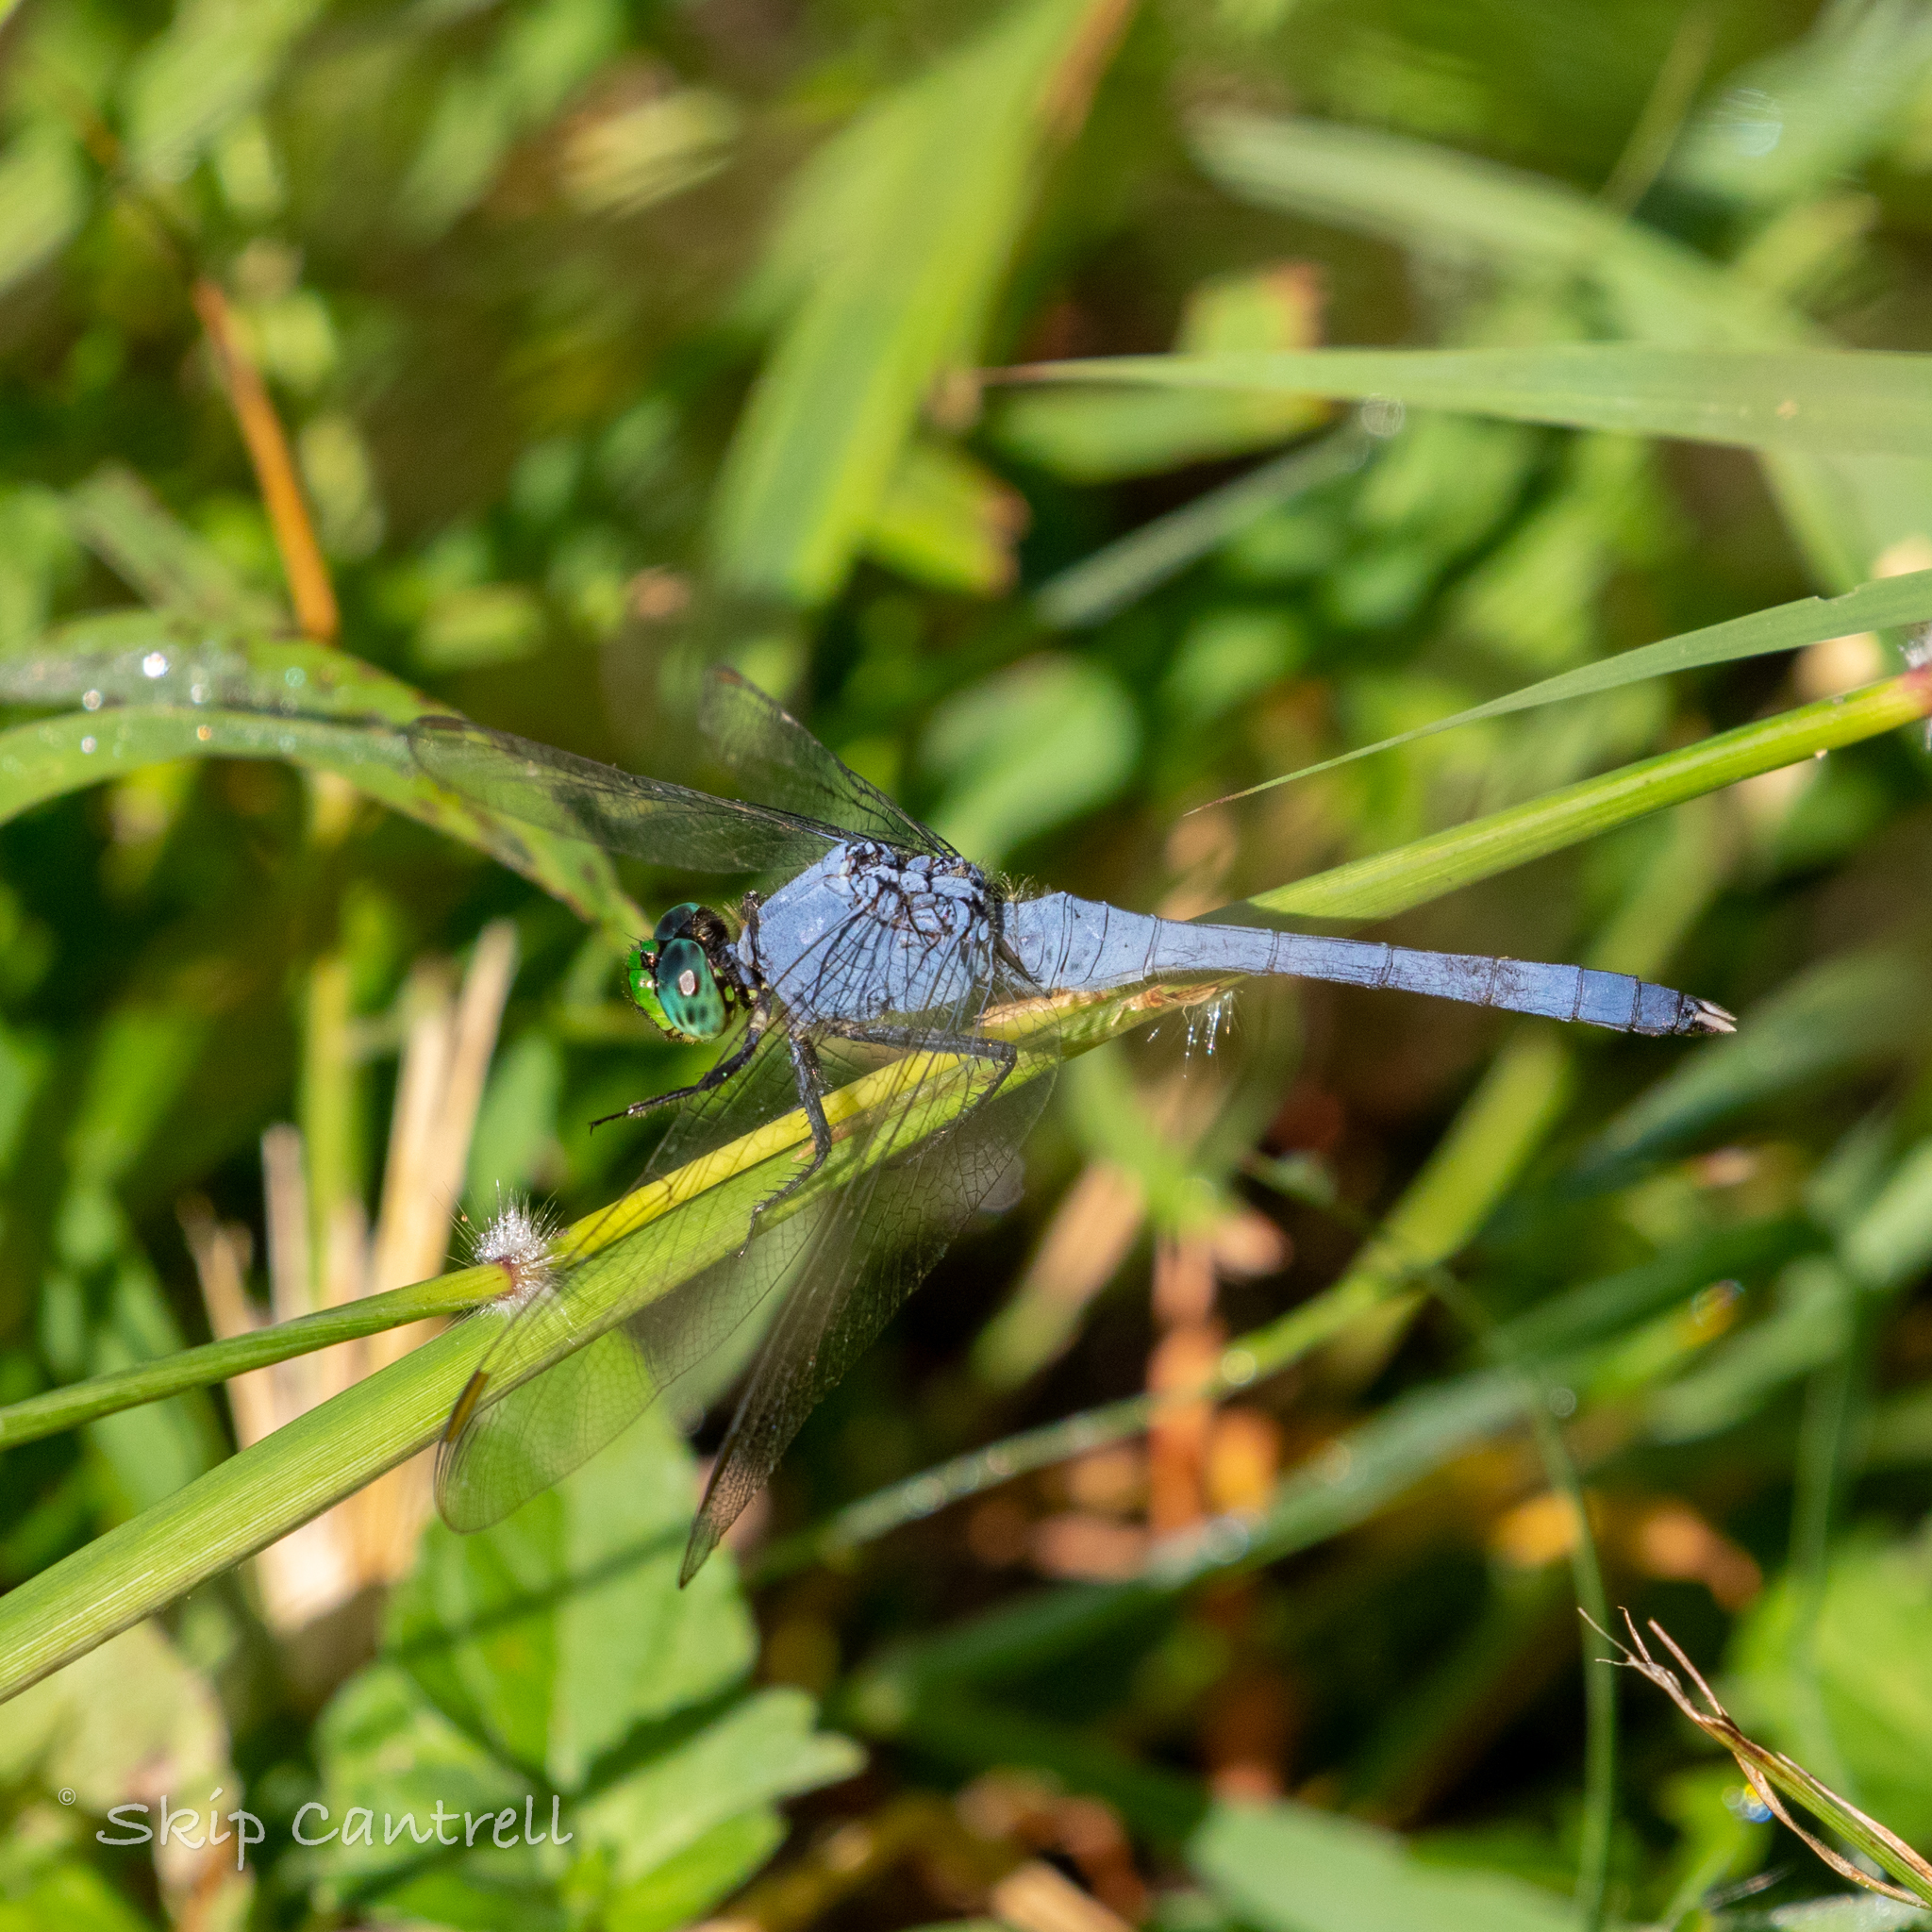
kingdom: Animalia
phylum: Arthropoda
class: Insecta
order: Odonata
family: Libellulidae
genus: Erythemis
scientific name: Erythemis simplicicollis
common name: Eastern pondhawk
